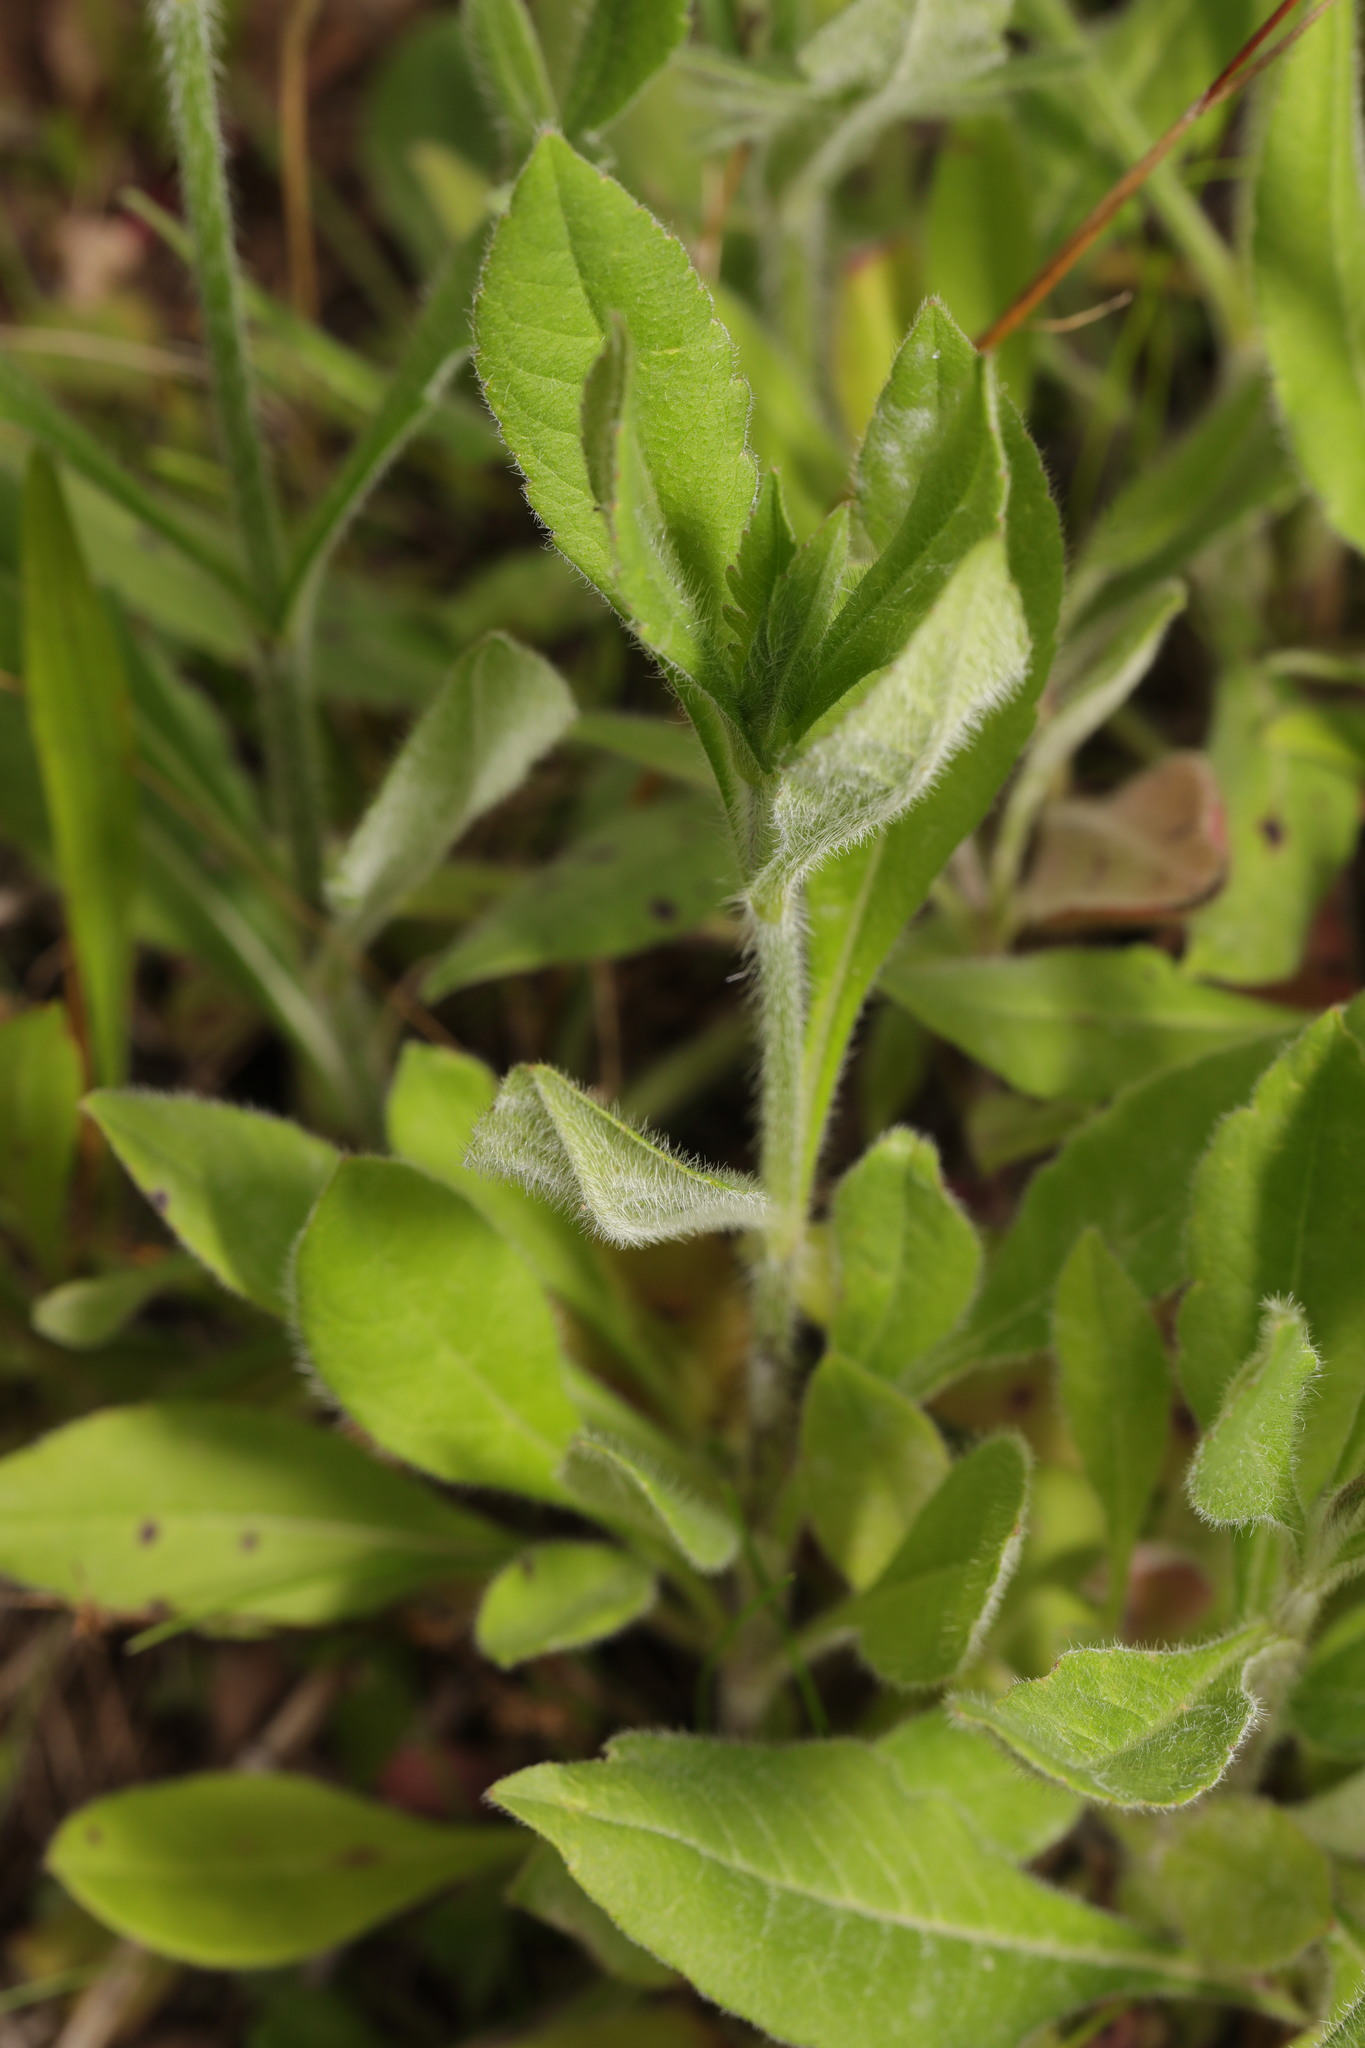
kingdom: Plantae
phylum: Tracheophyta
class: Magnoliopsida
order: Dipsacales
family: Caprifoliaceae
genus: Knautia
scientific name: Knautia arvensis
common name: Field scabiosa
